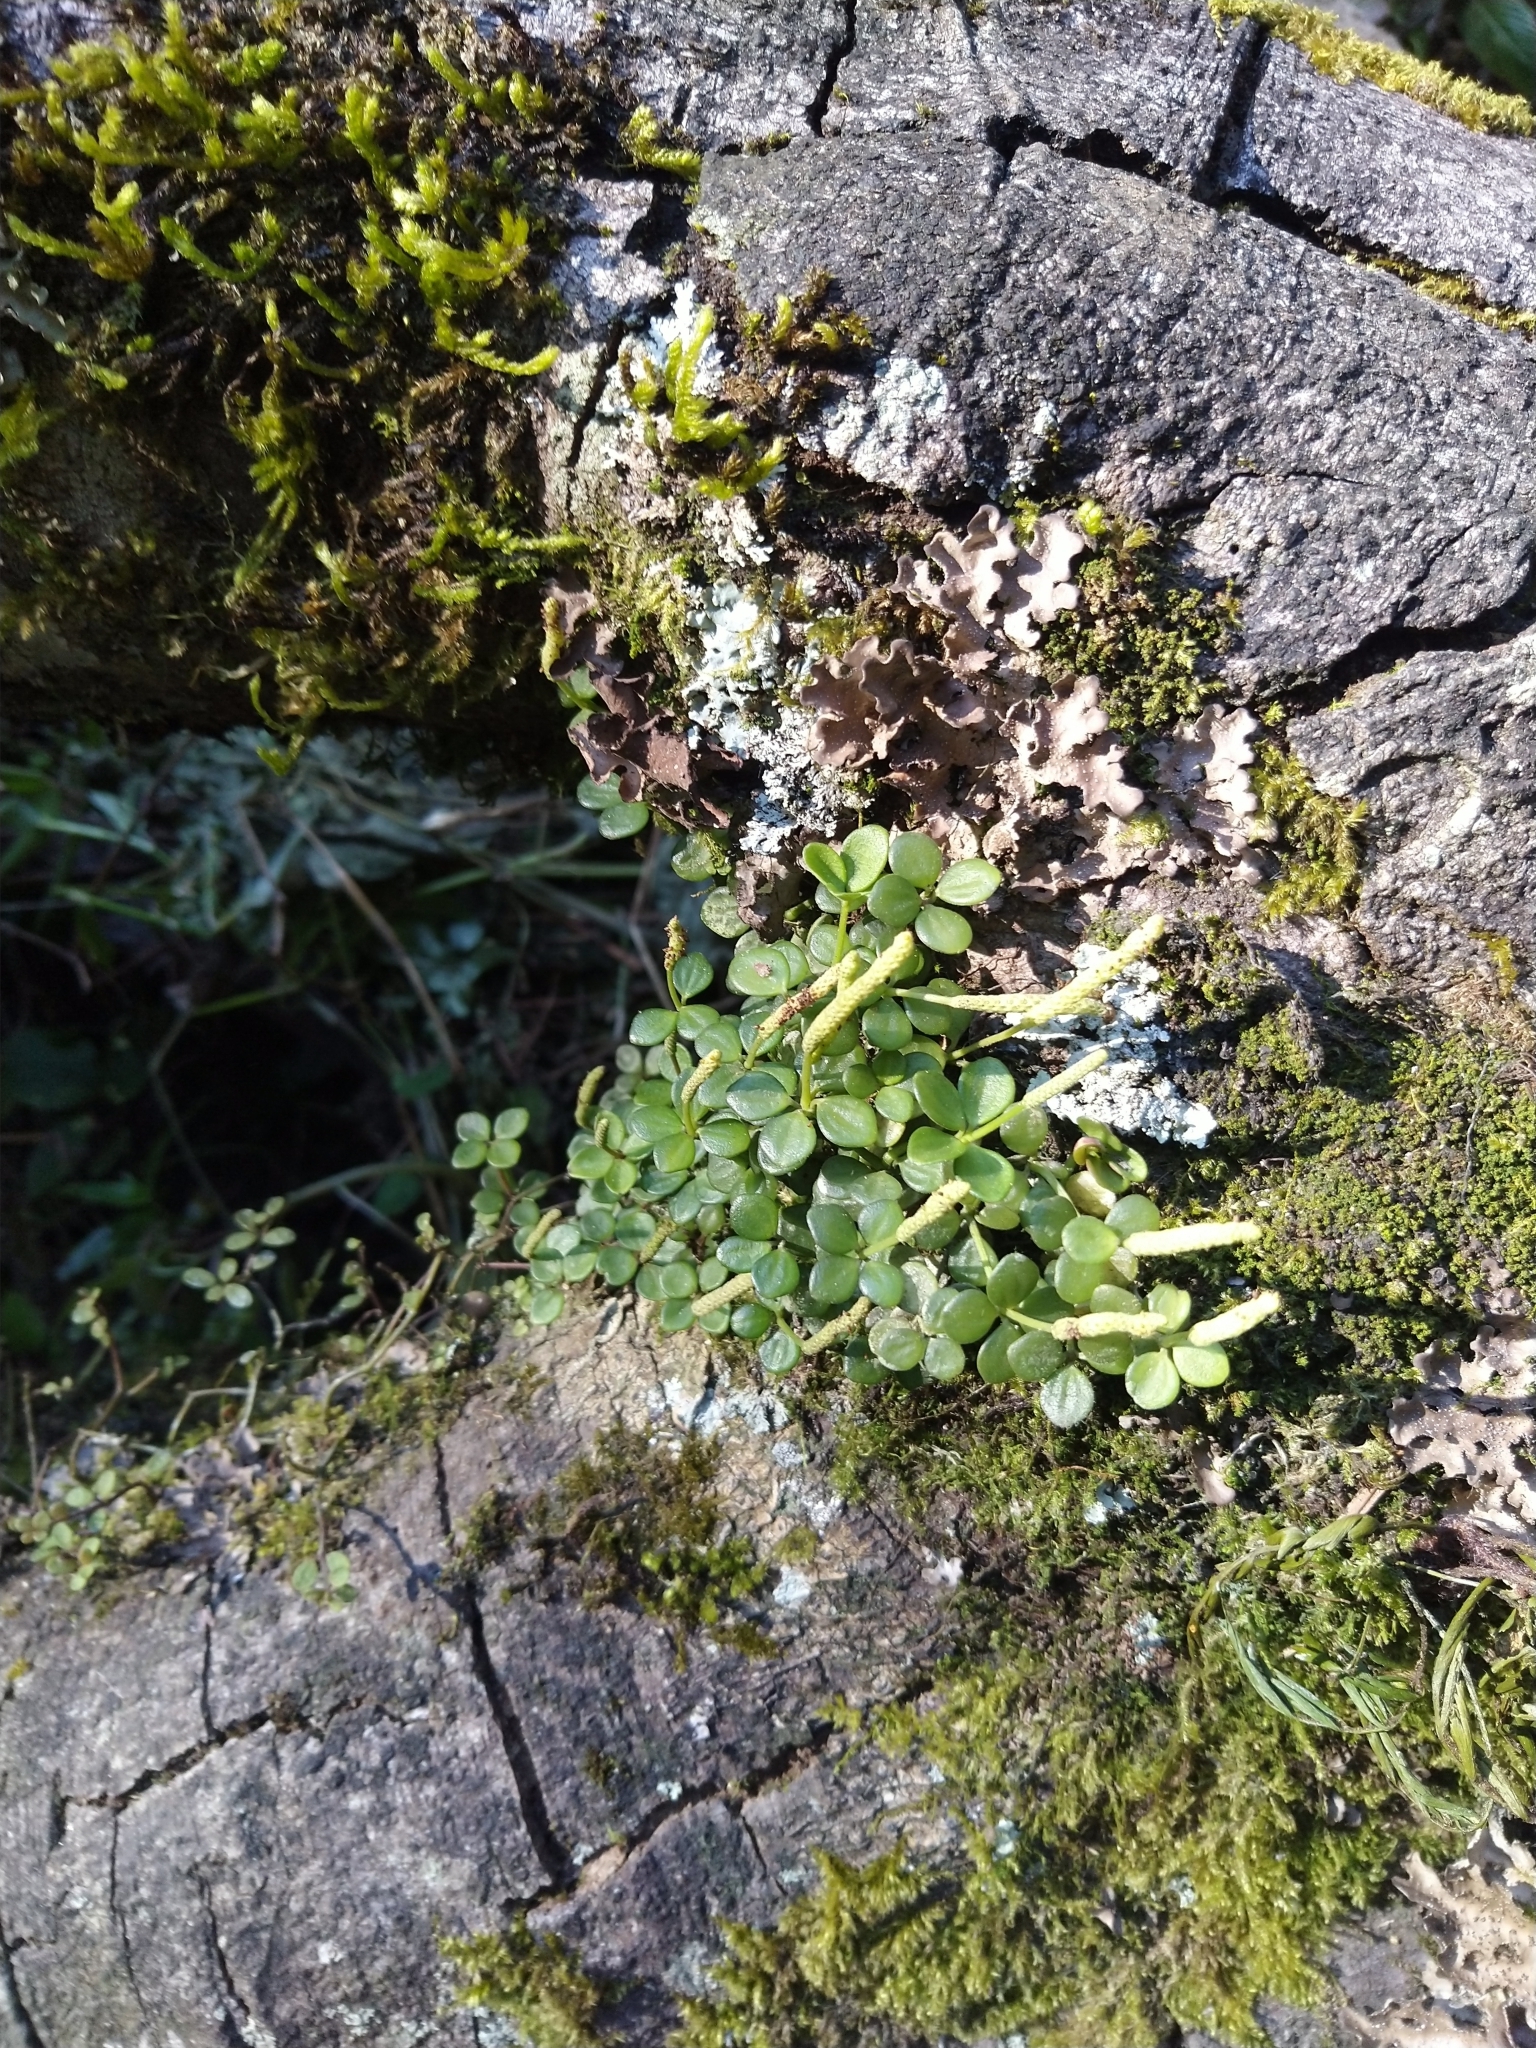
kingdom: Plantae
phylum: Tracheophyta
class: Magnoliopsida
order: Piperales
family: Piperaceae
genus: Peperomia
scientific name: Peperomia tetraphylla
